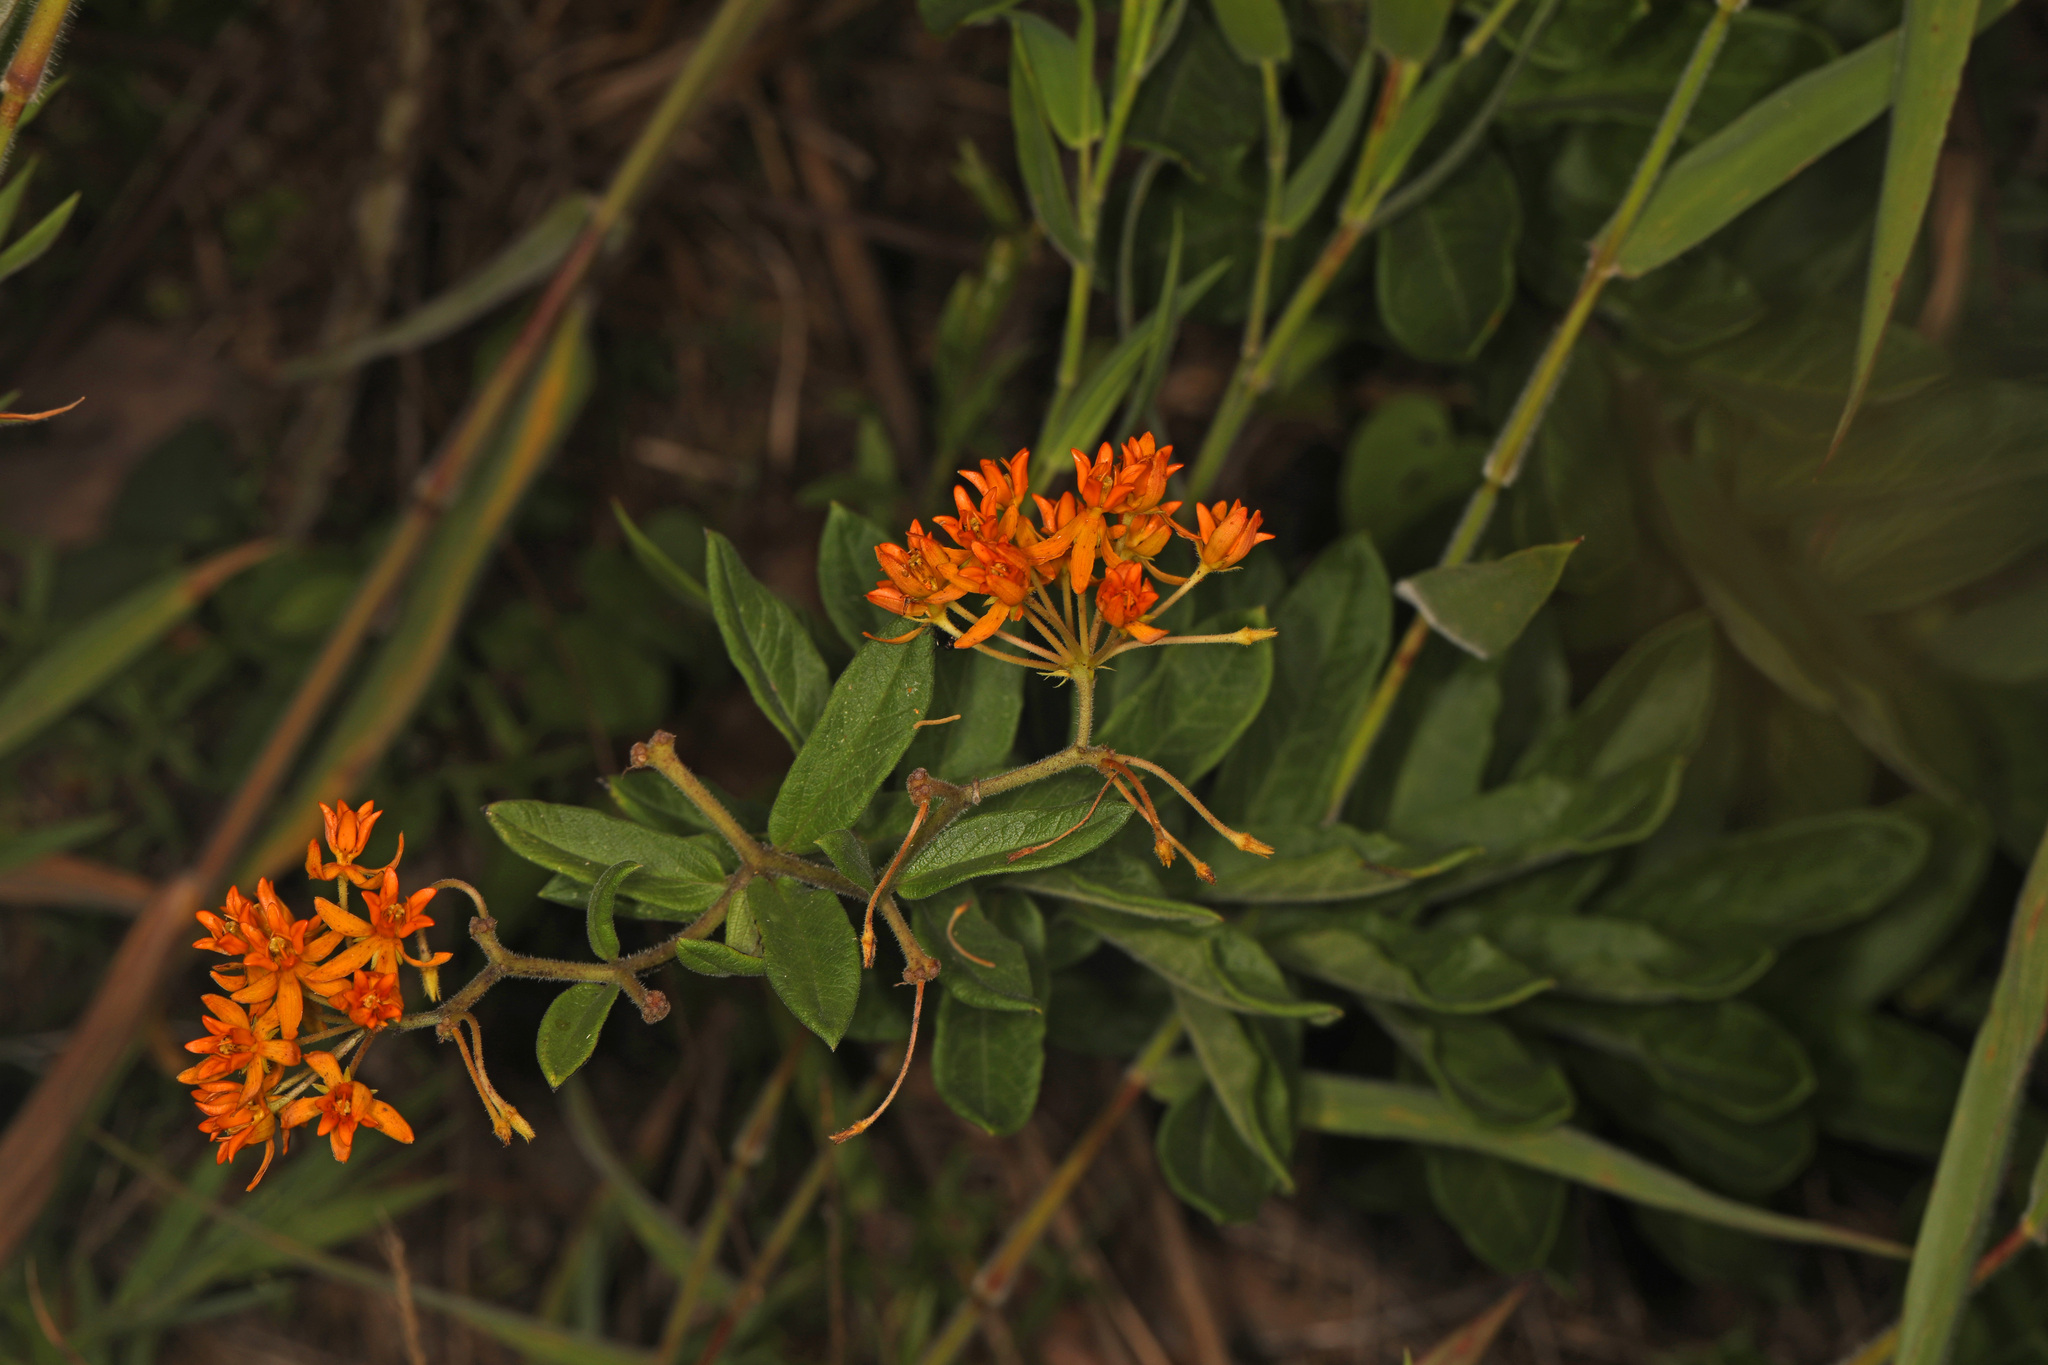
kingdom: Plantae
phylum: Tracheophyta
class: Magnoliopsida
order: Gentianales
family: Apocynaceae
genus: Asclepias
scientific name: Asclepias tuberosa
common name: Butterfly milkweed
